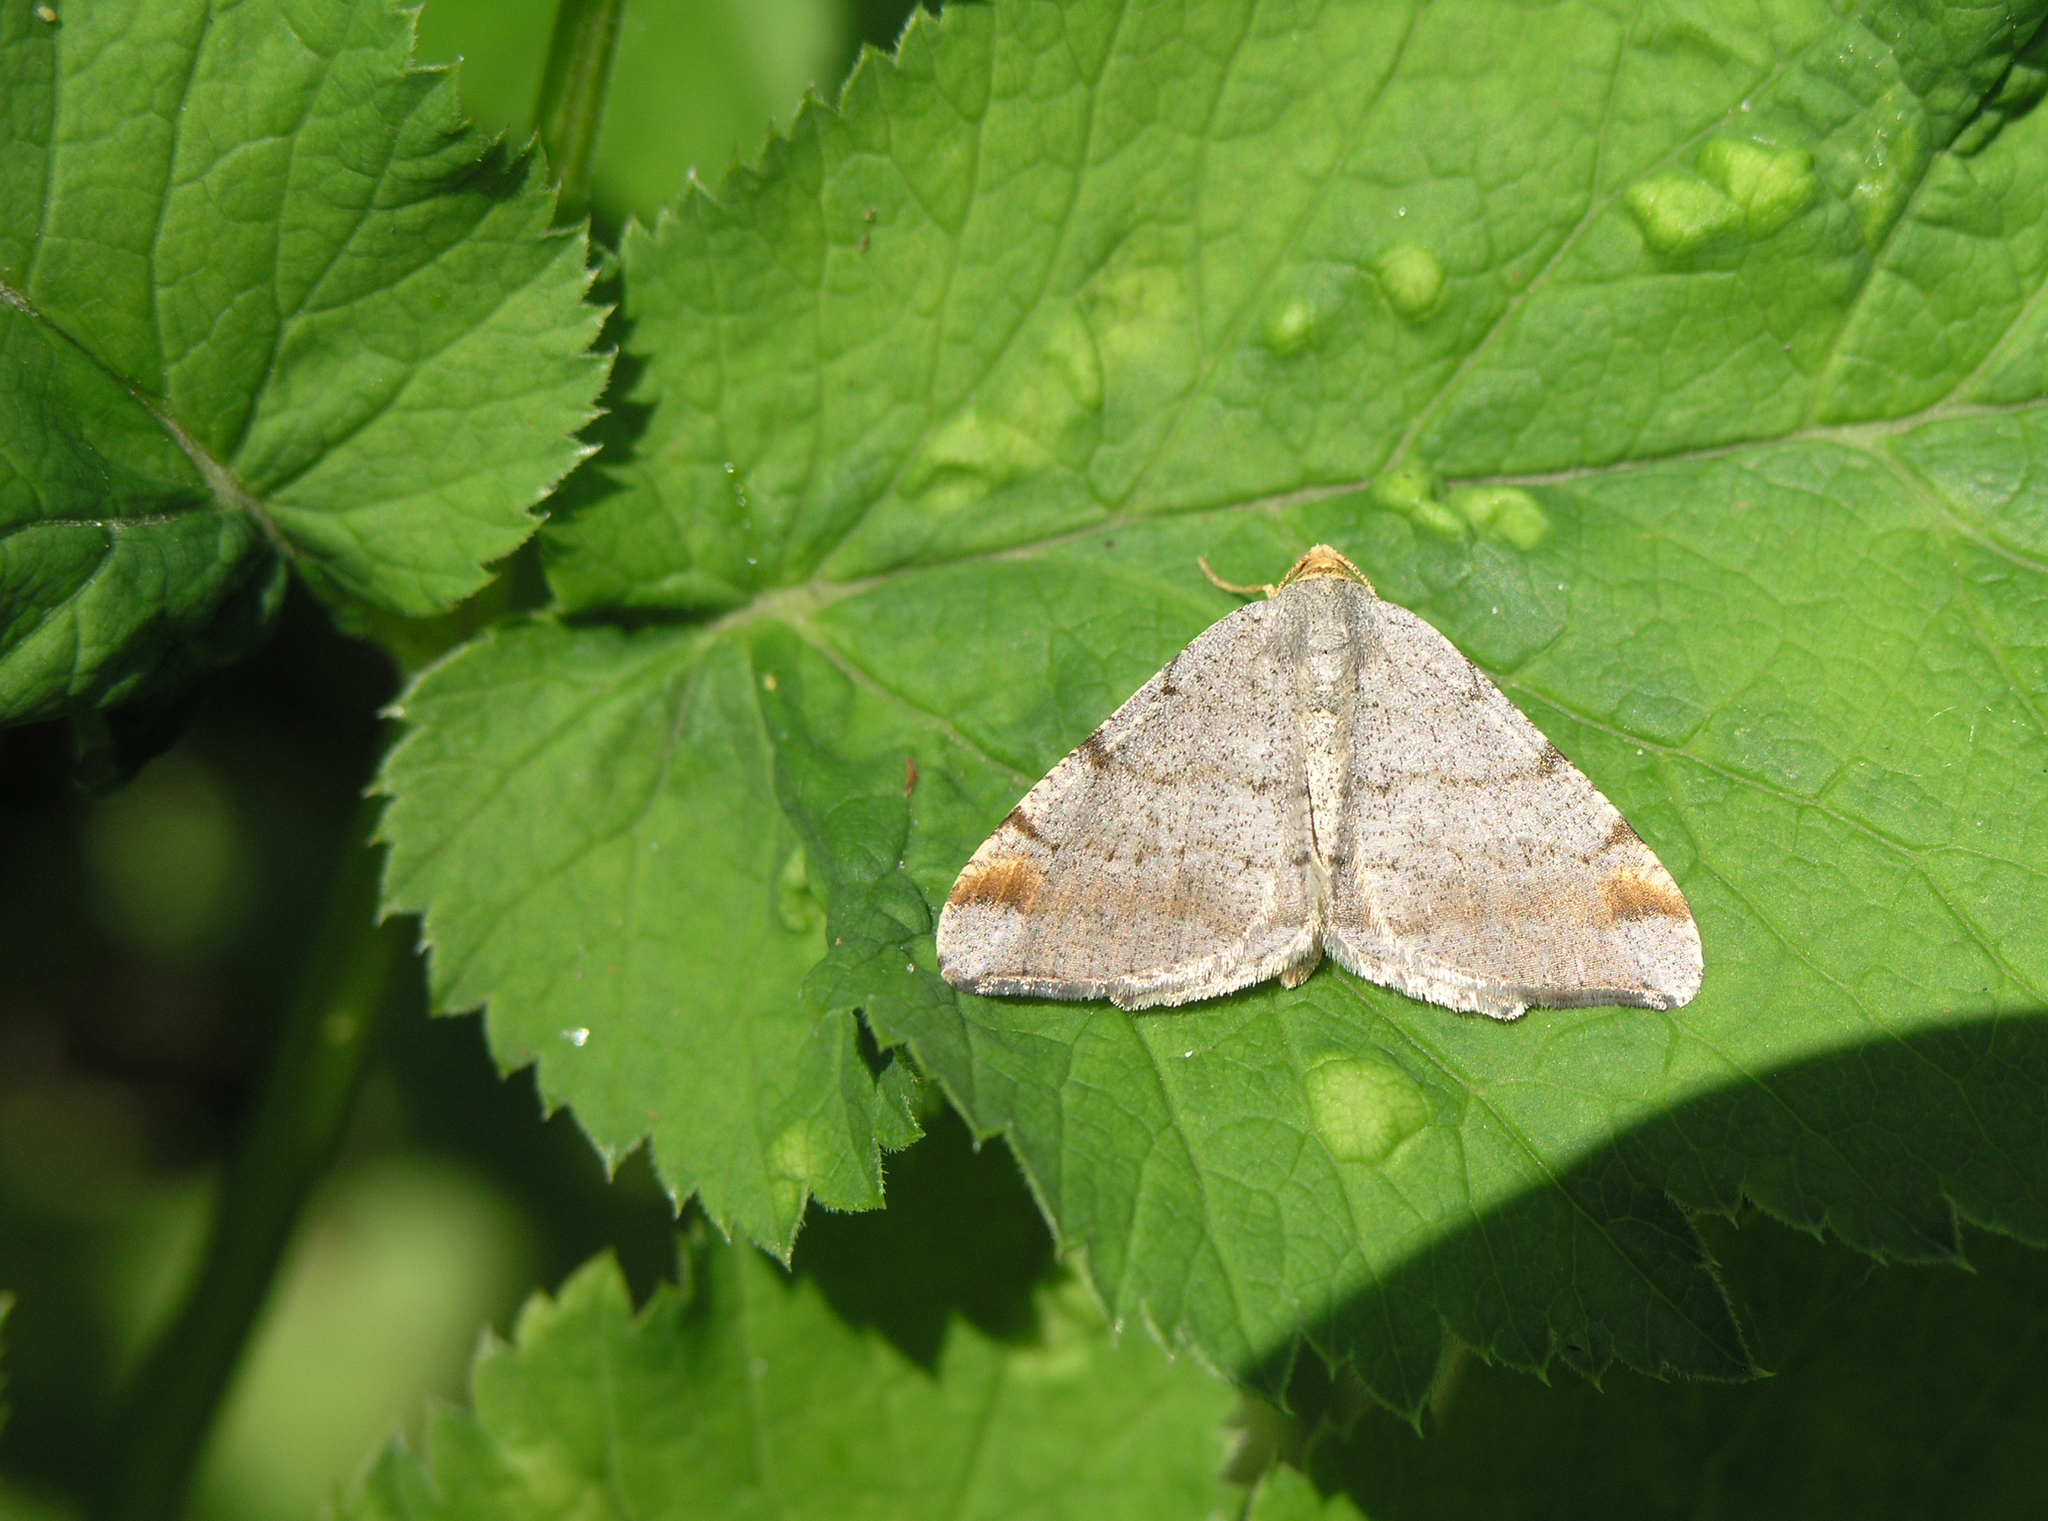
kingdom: Animalia
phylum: Arthropoda
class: Insecta
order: Lepidoptera
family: Geometridae
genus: Macaria
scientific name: Macaria liturata
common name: Tawny-barred angle
